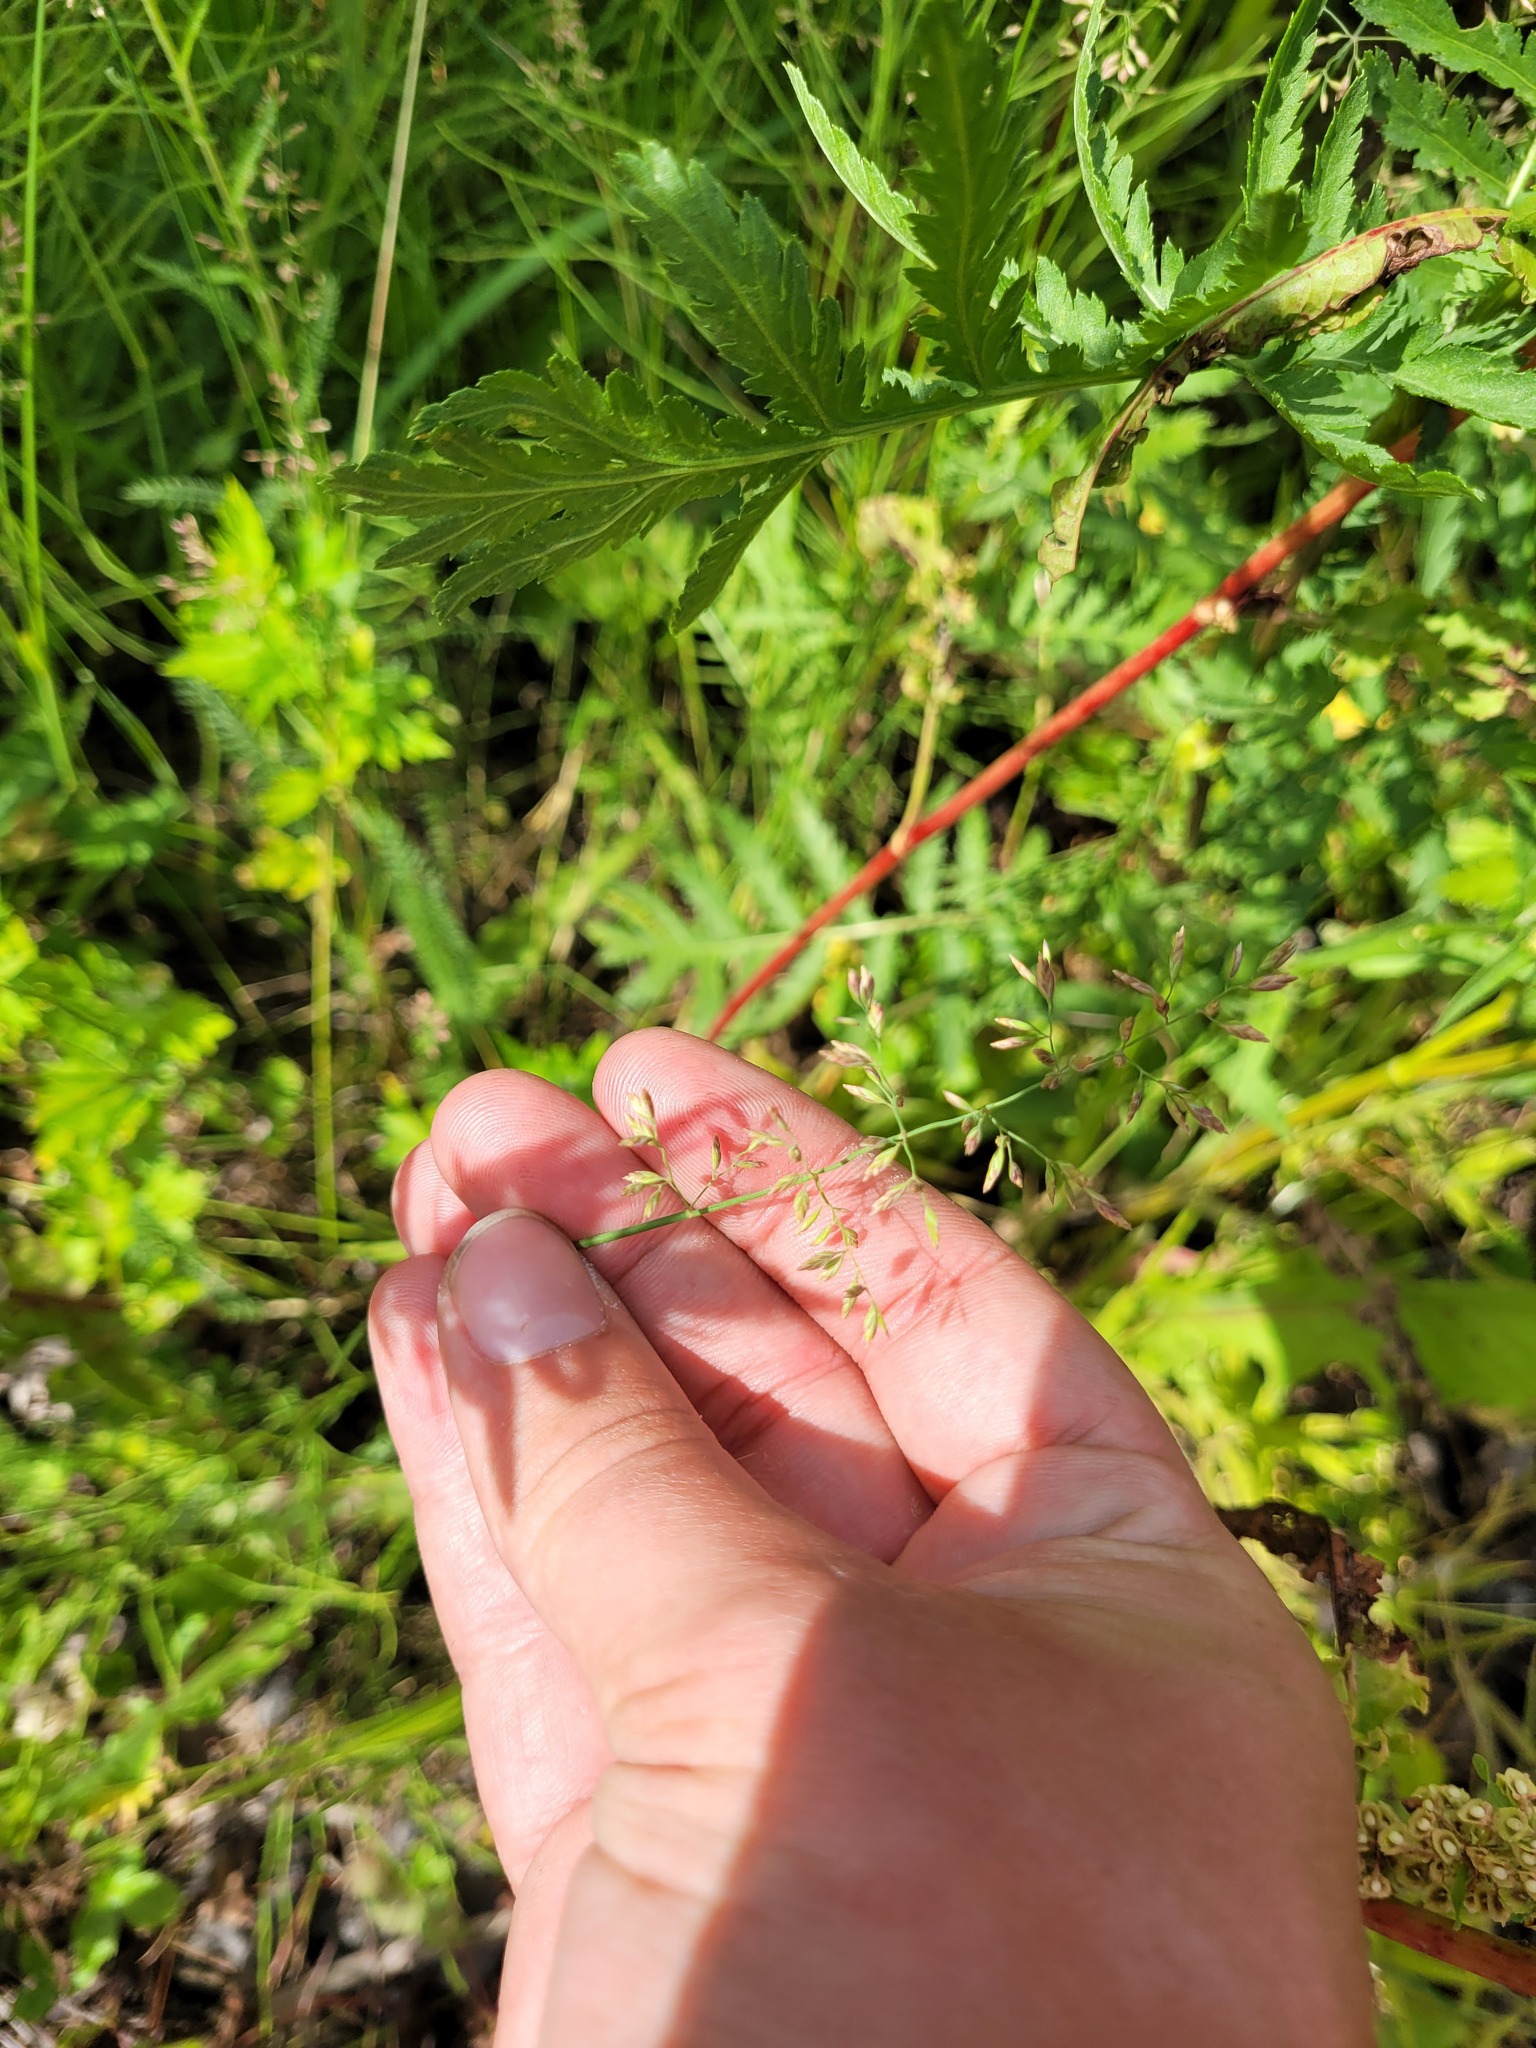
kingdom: Plantae
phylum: Tracheophyta
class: Liliopsida
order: Poales
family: Poaceae
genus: Poa
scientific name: Poa compressa
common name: Canada bluegrass
